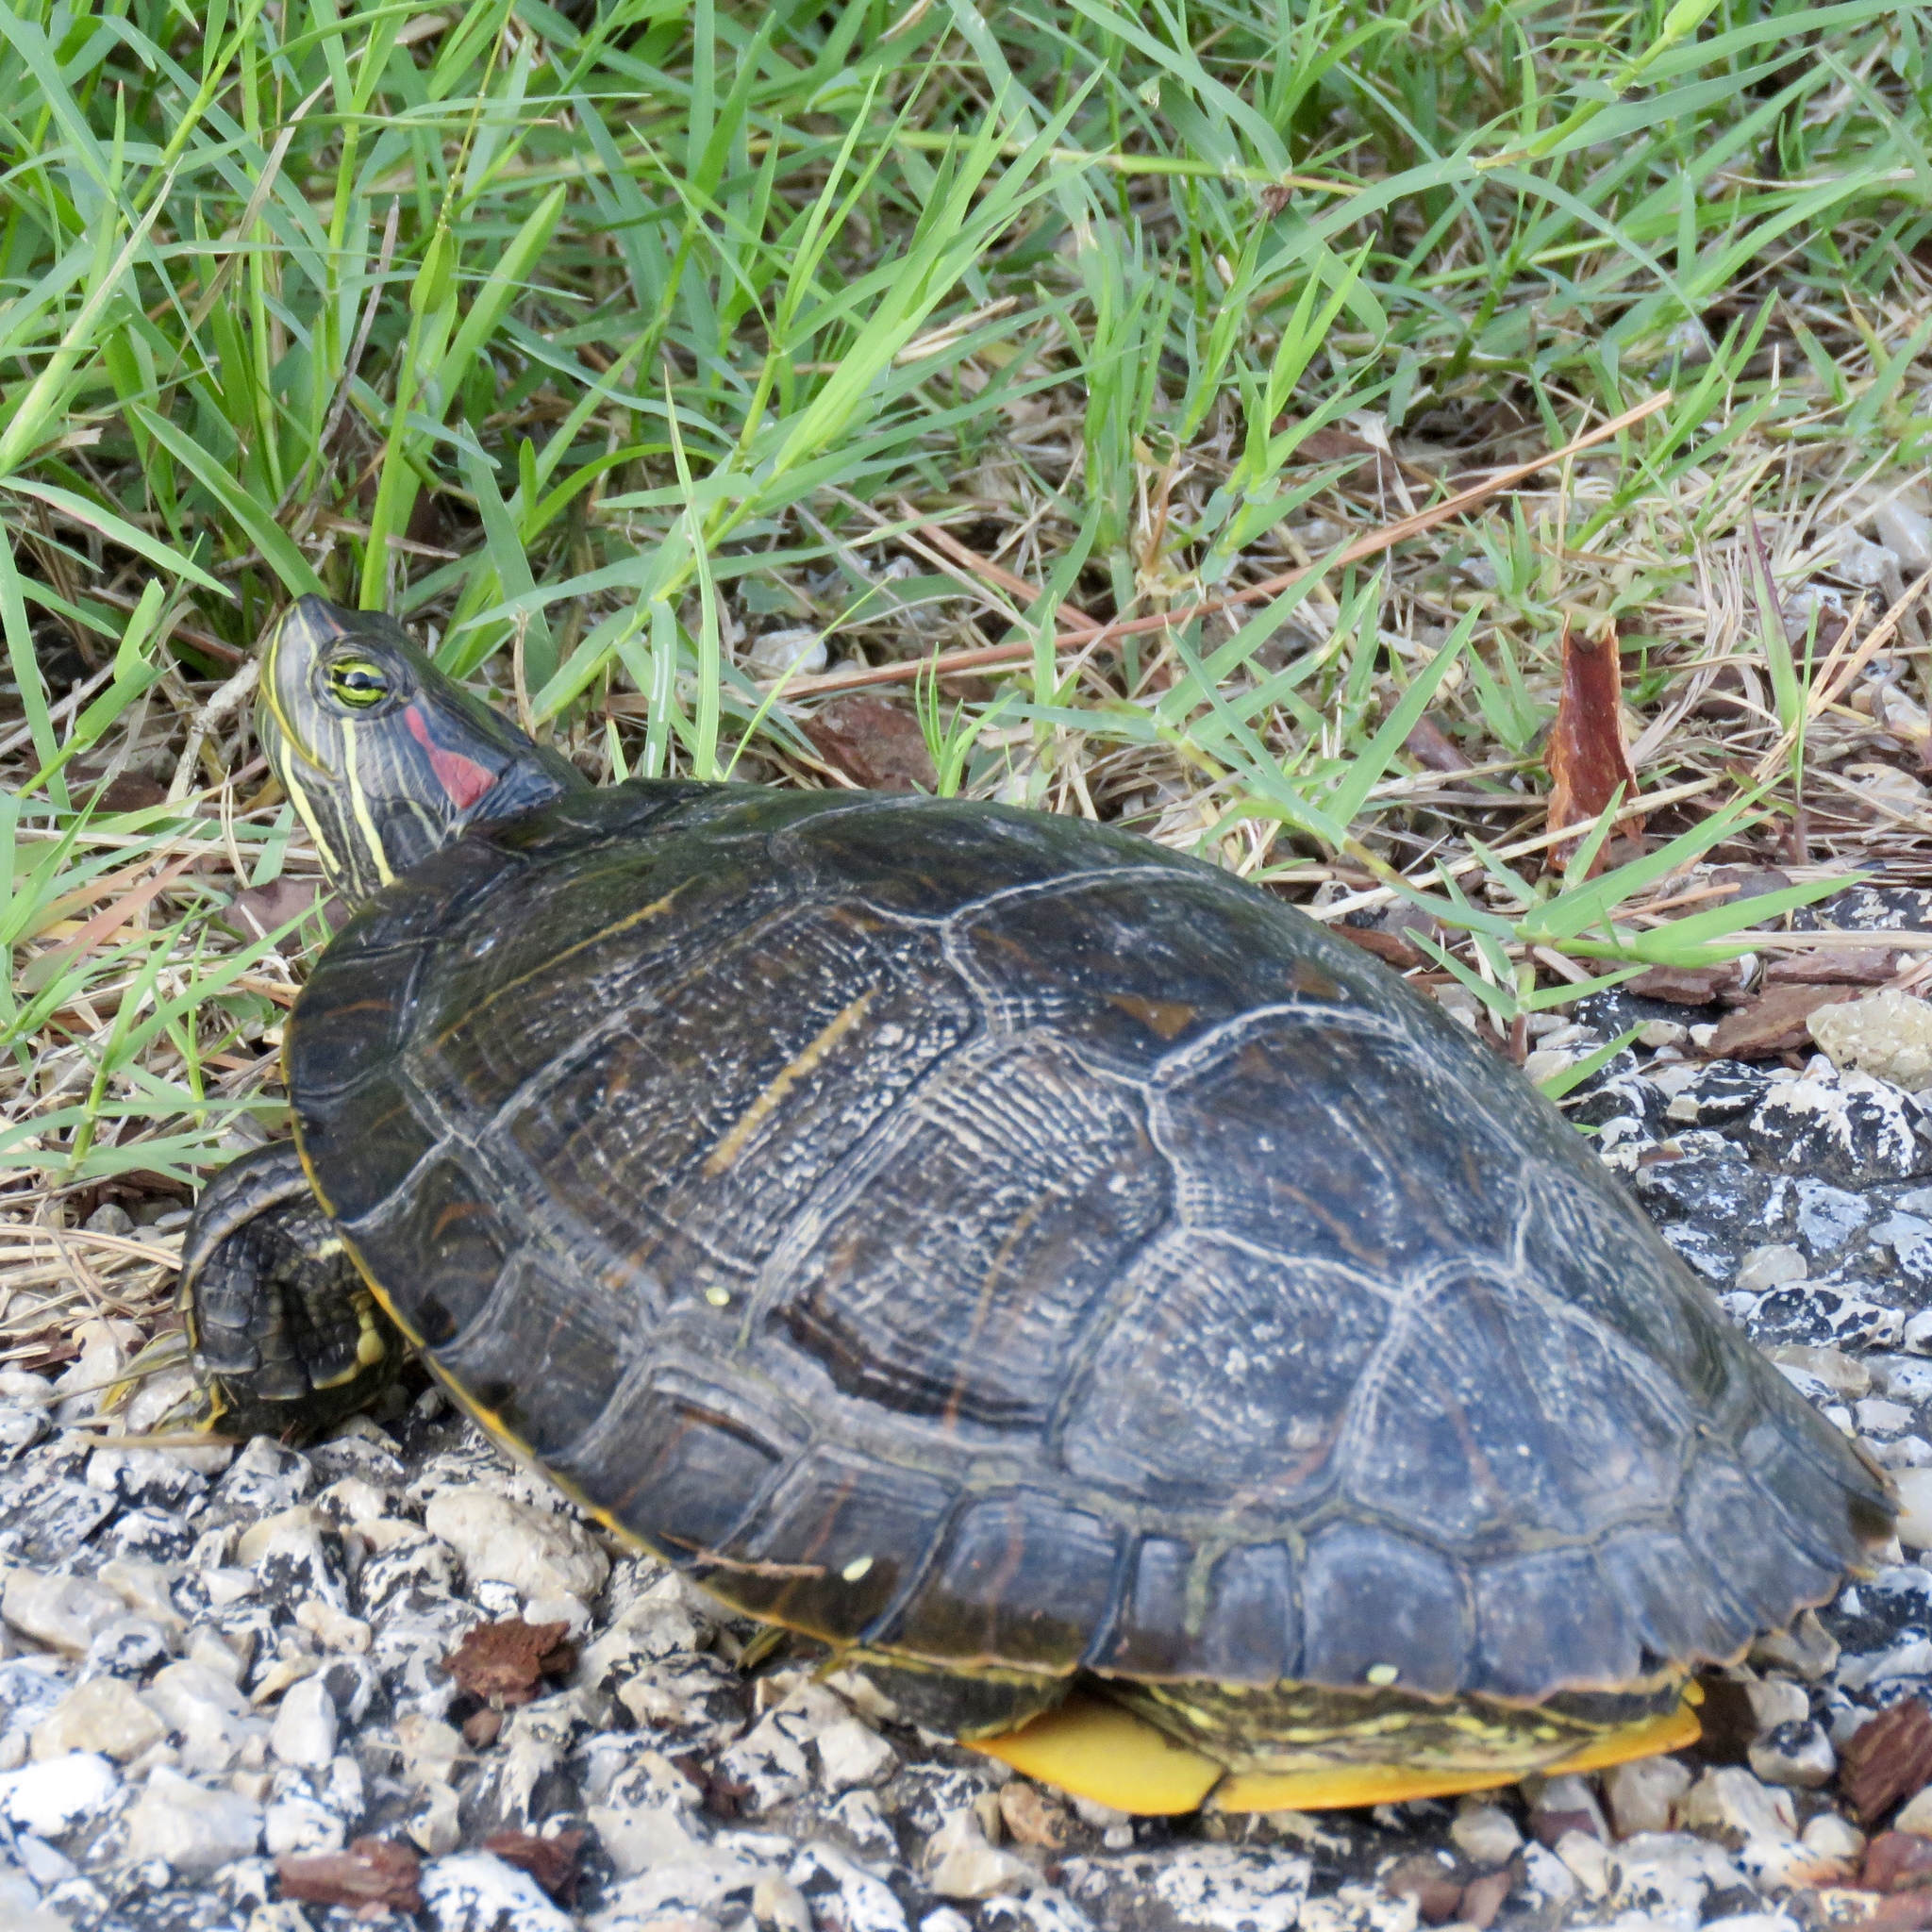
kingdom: Animalia
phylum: Chordata
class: Testudines
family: Emydidae
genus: Trachemys
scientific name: Trachemys scripta
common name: Slider
